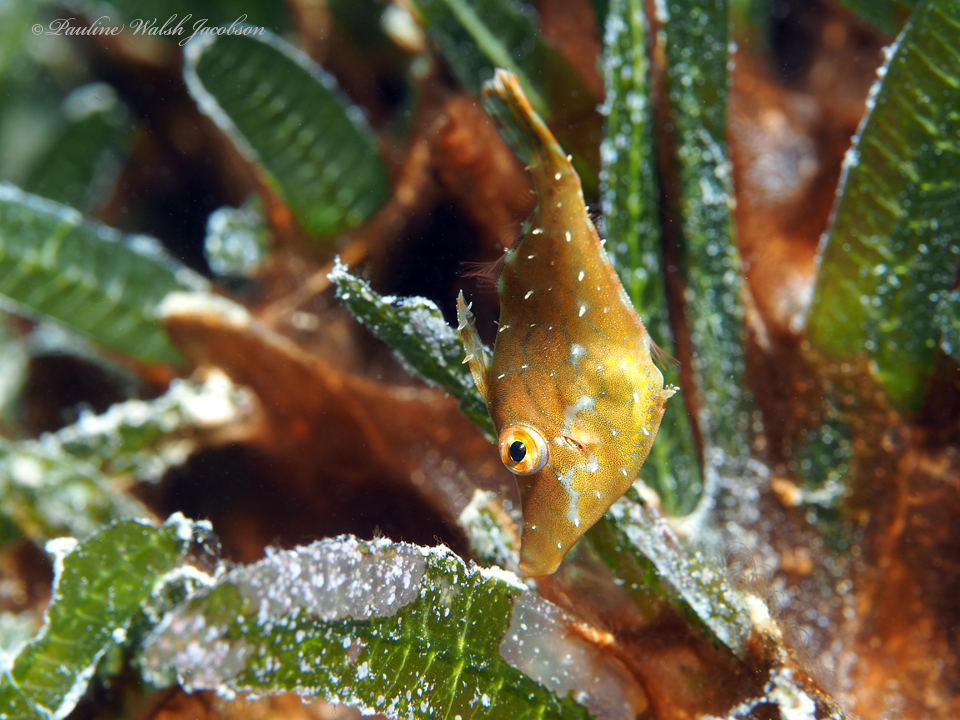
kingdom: Animalia
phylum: Chordata
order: Tetraodontiformes
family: Monacanthidae
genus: Monacanthus
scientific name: Monacanthus tuckeri
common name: Slender filefish
